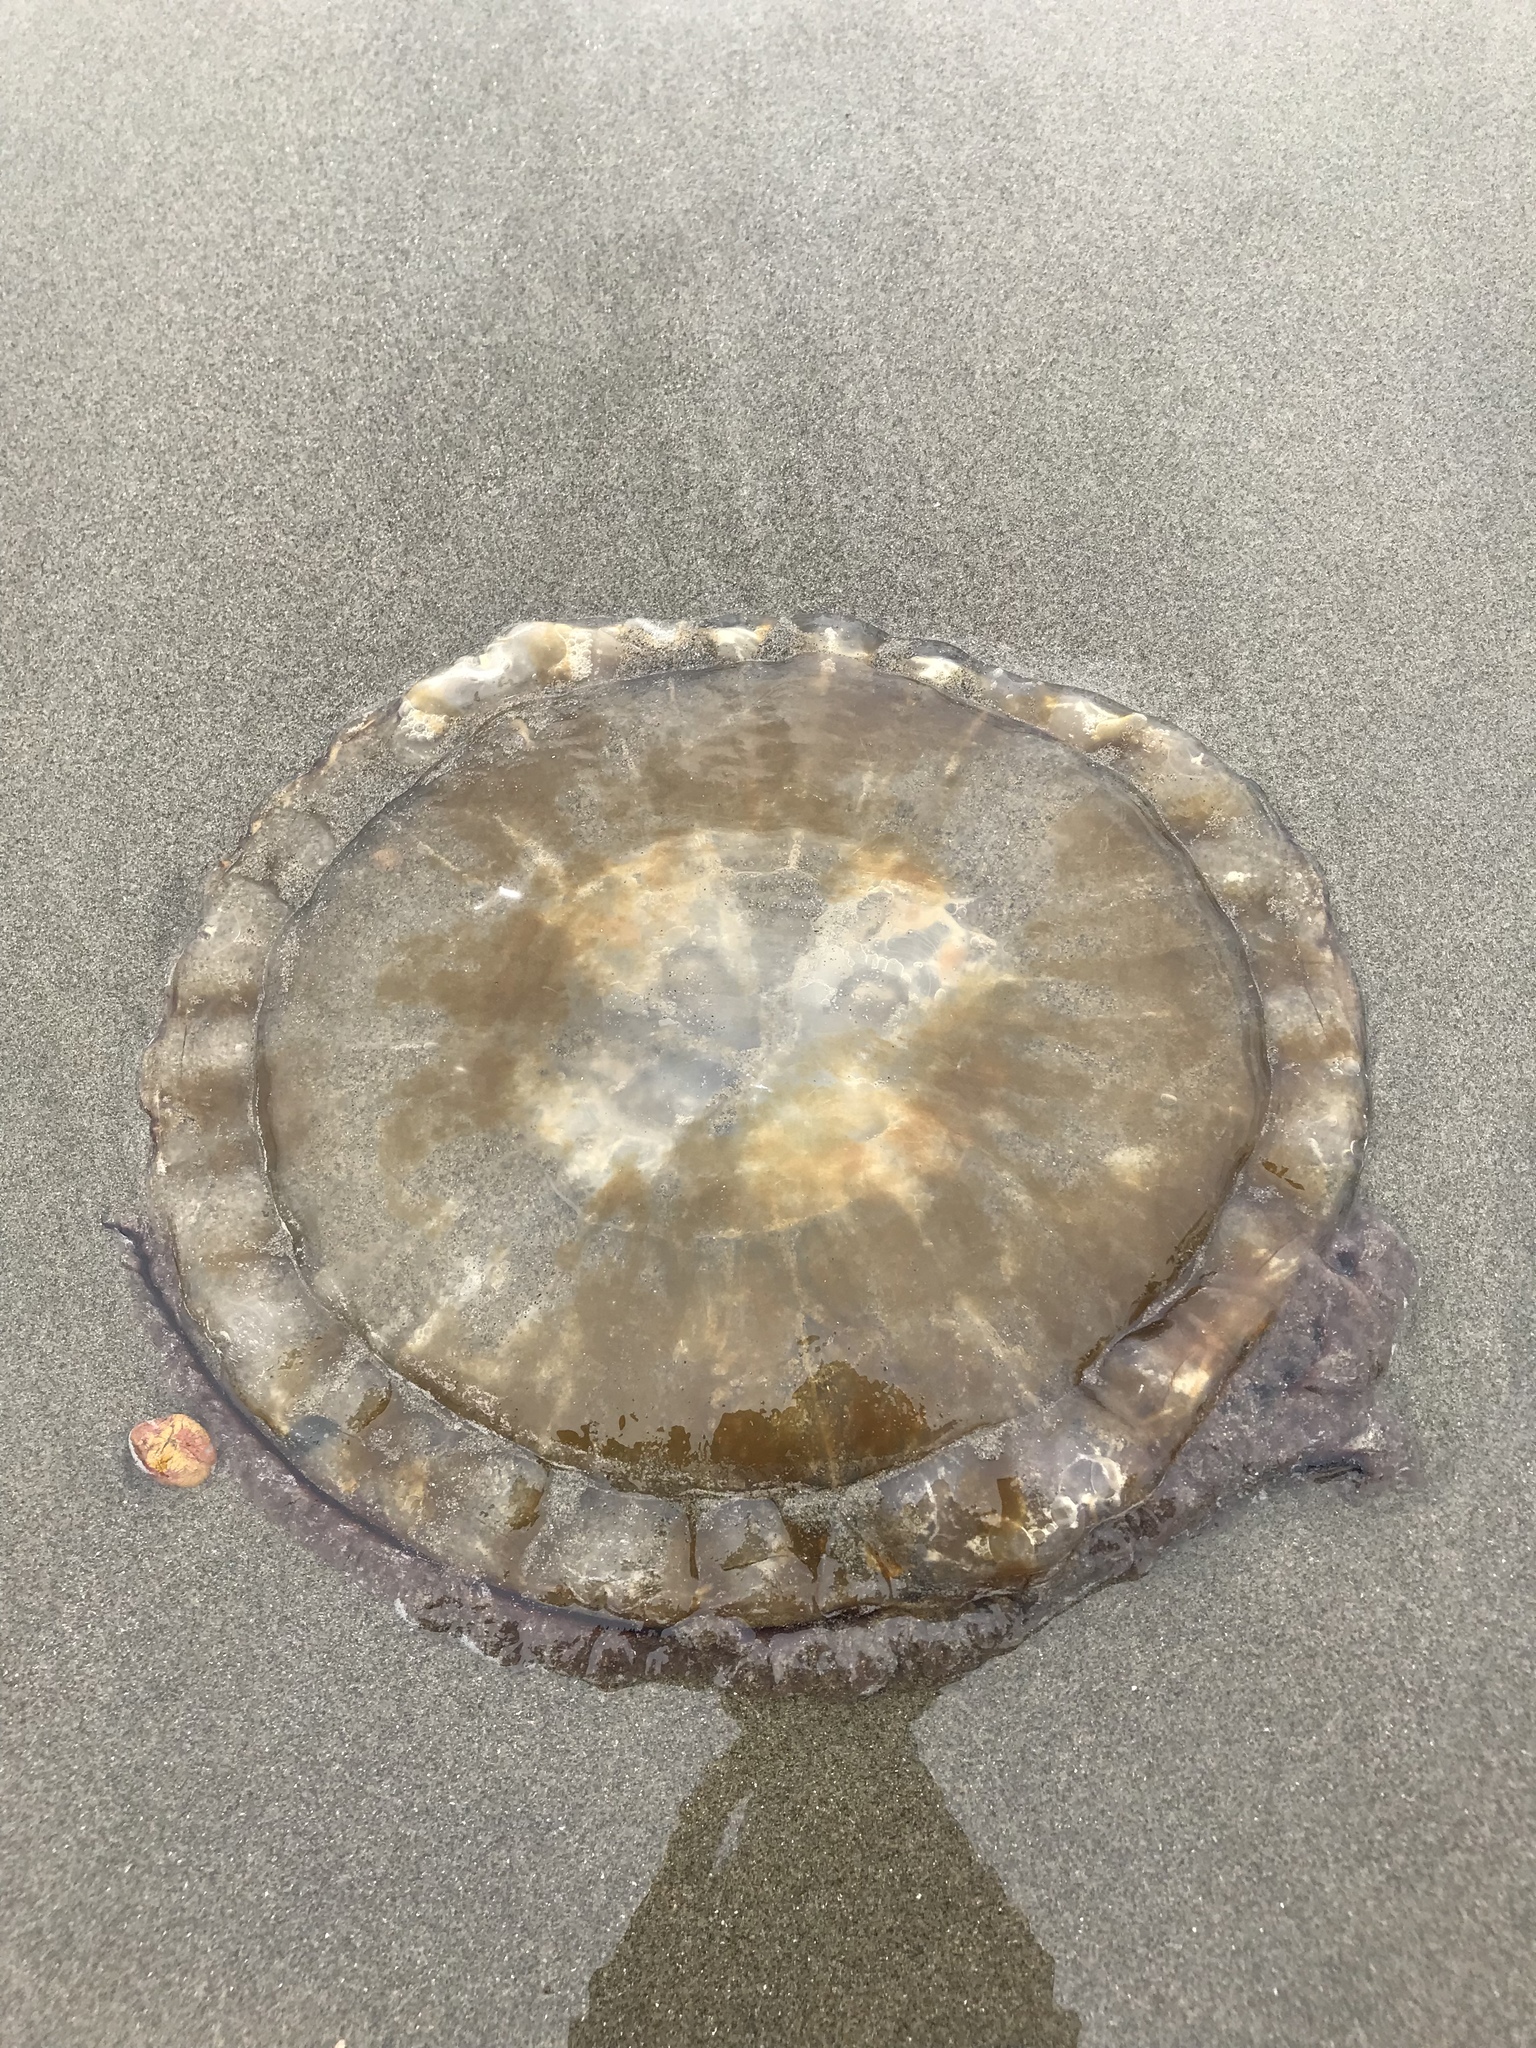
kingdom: Animalia
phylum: Cnidaria
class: Scyphozoa
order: Semaeostomeae
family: Pelagiidae
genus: Chrysaora
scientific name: Chrysaora fuscescens
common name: Sea nettle
